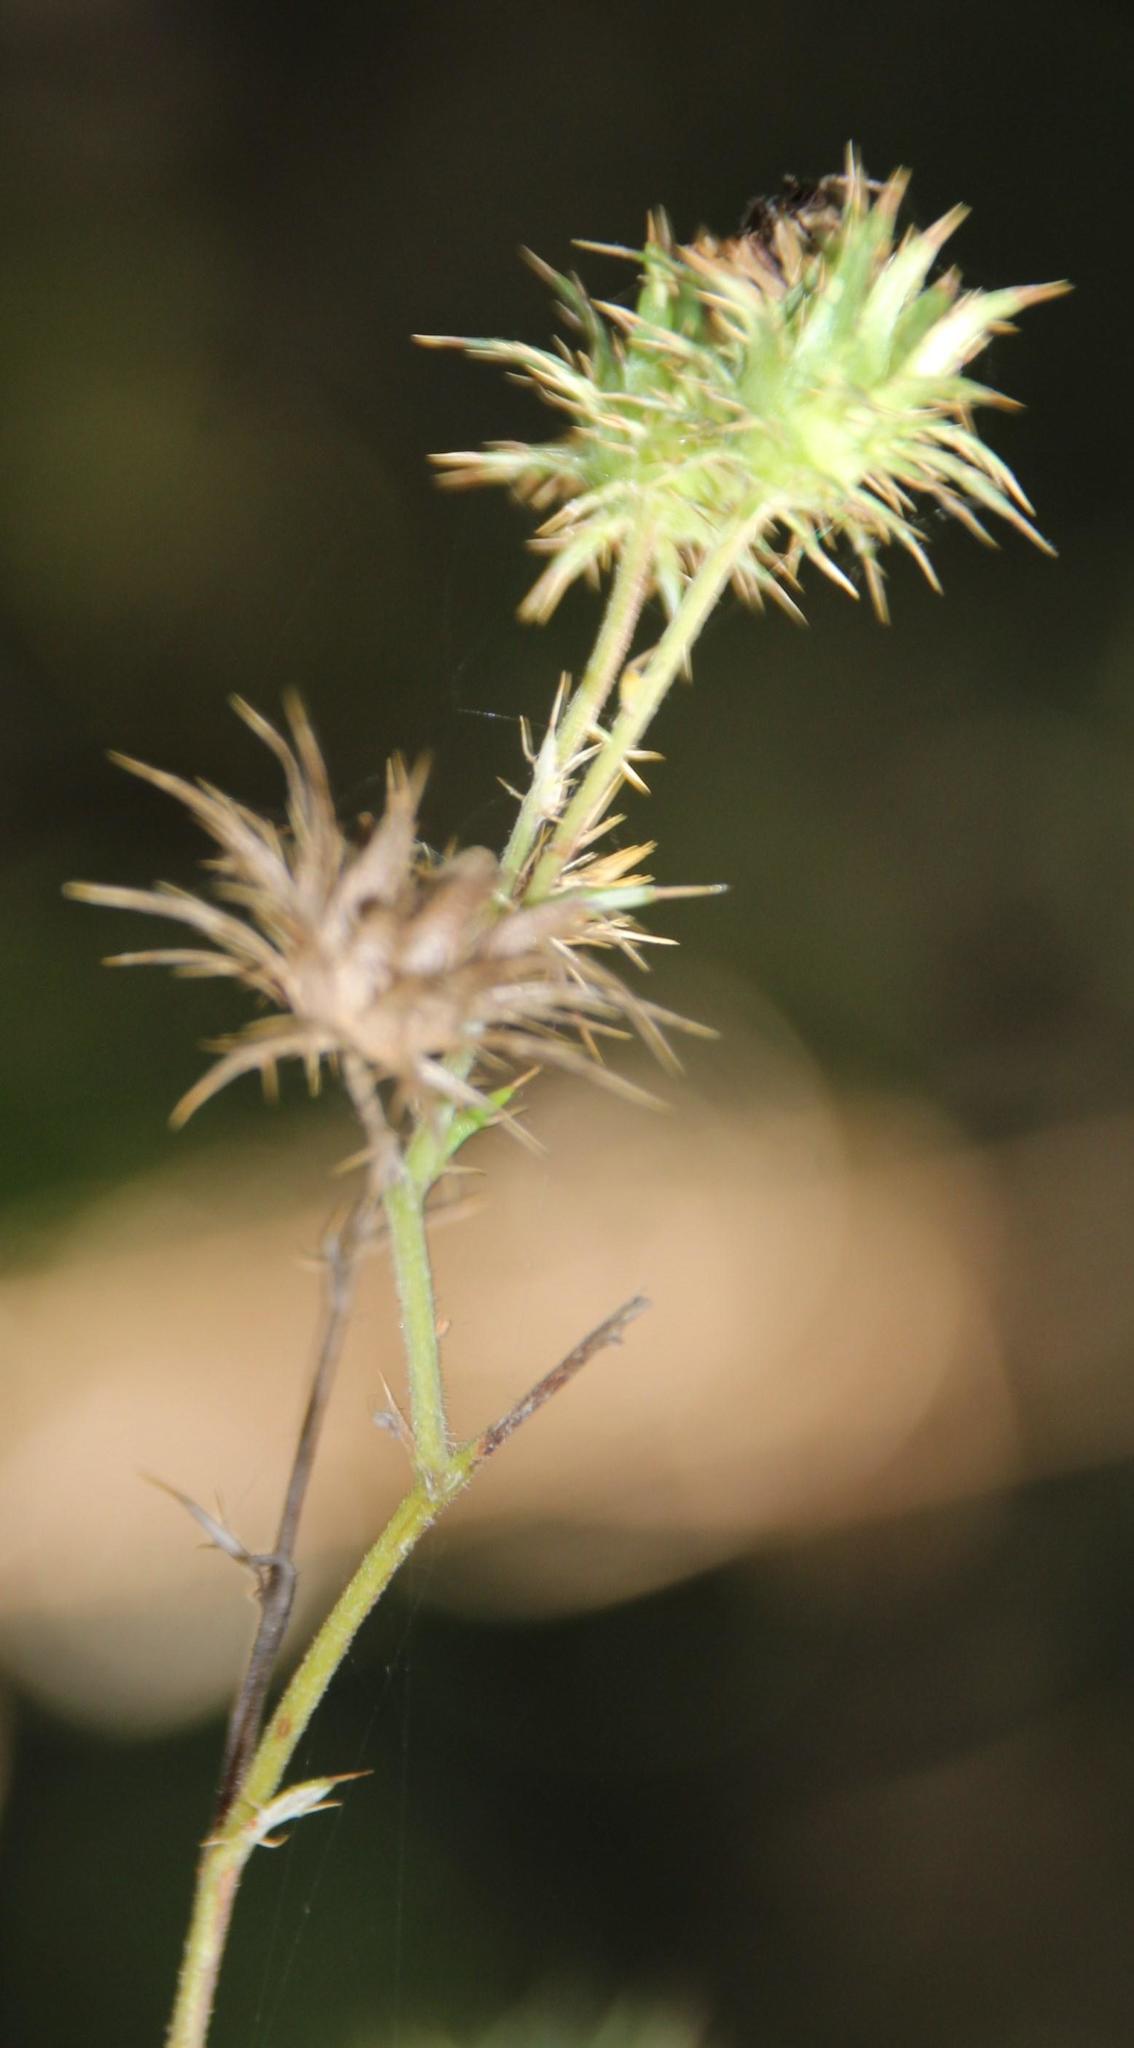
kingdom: Plantae
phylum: Tracheophyta
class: Magnoliopsida
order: Asterales
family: Asteraceae
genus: Berkheya
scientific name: Berkheya bipinnatifida
